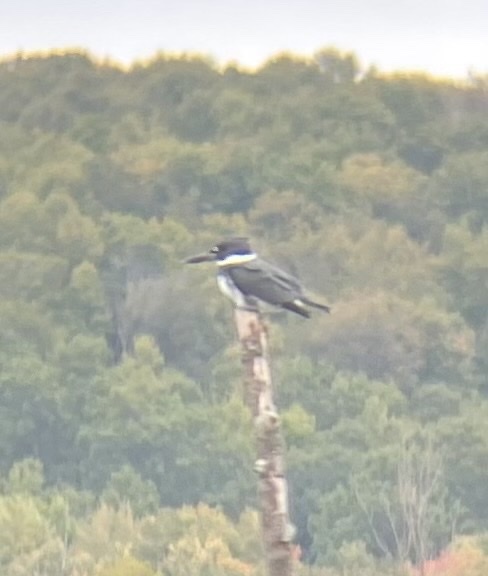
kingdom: Animalia
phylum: Chordata
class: Aves
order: Coraciiformes
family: Alcedinidae
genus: Megaceryle
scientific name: Megaceryle alcyon
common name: Belted kingfisher
